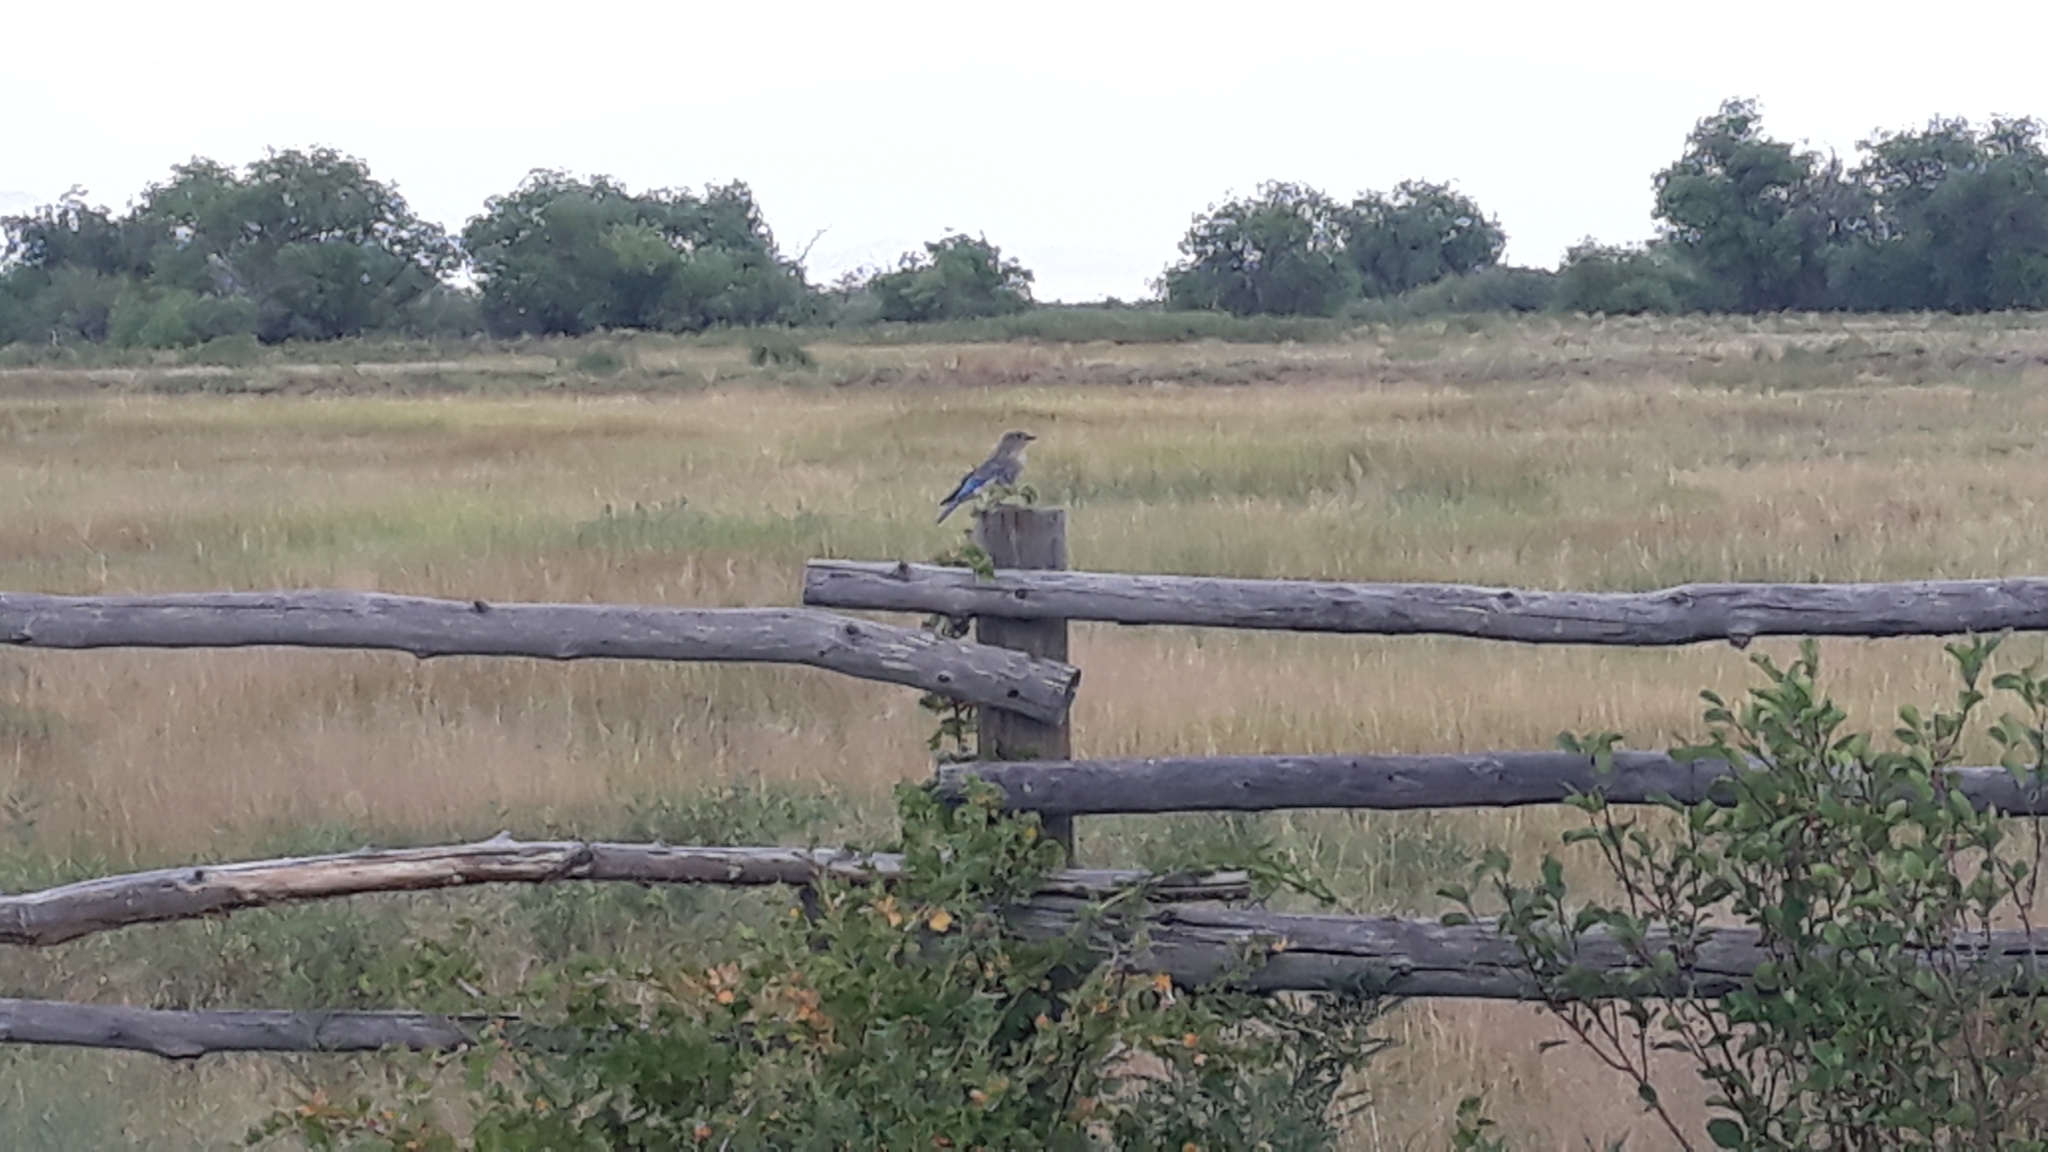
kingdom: Animalia
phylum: Chordata
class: Aves
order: Passeriformes
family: Turdidae
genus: Sialia
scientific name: Sialia currucoides
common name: Mountain bluebird
